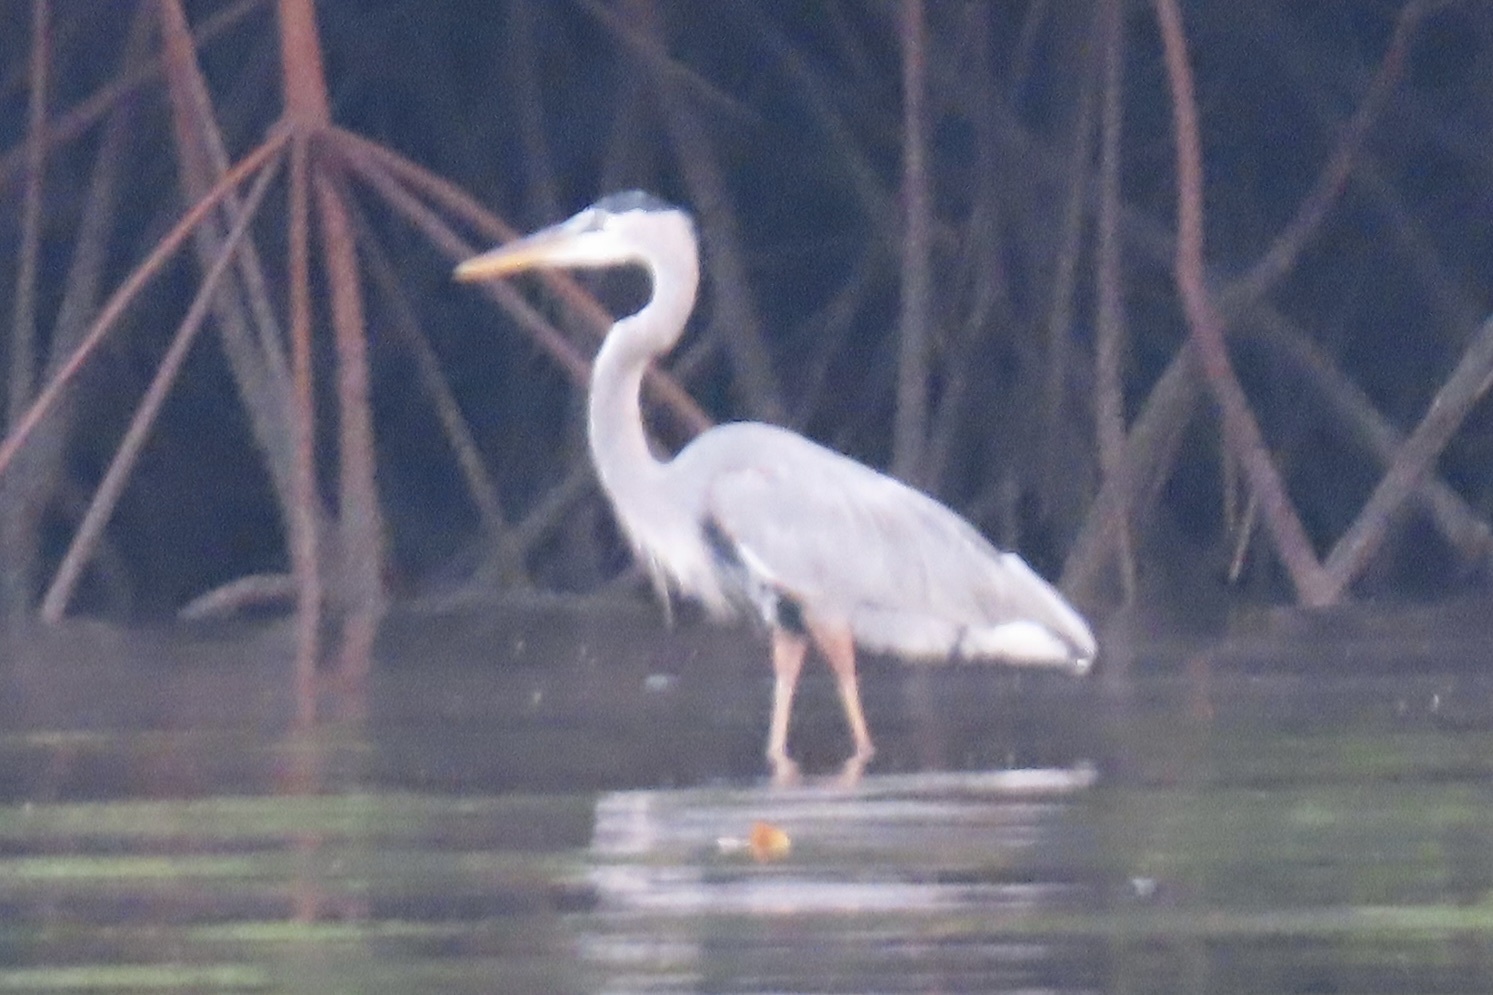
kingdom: Animalia
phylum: Chordata
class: Aves
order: Pelecaniformes
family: Ardeidae
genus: Ardea
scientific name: Ardea herodias
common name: Great blue heron
